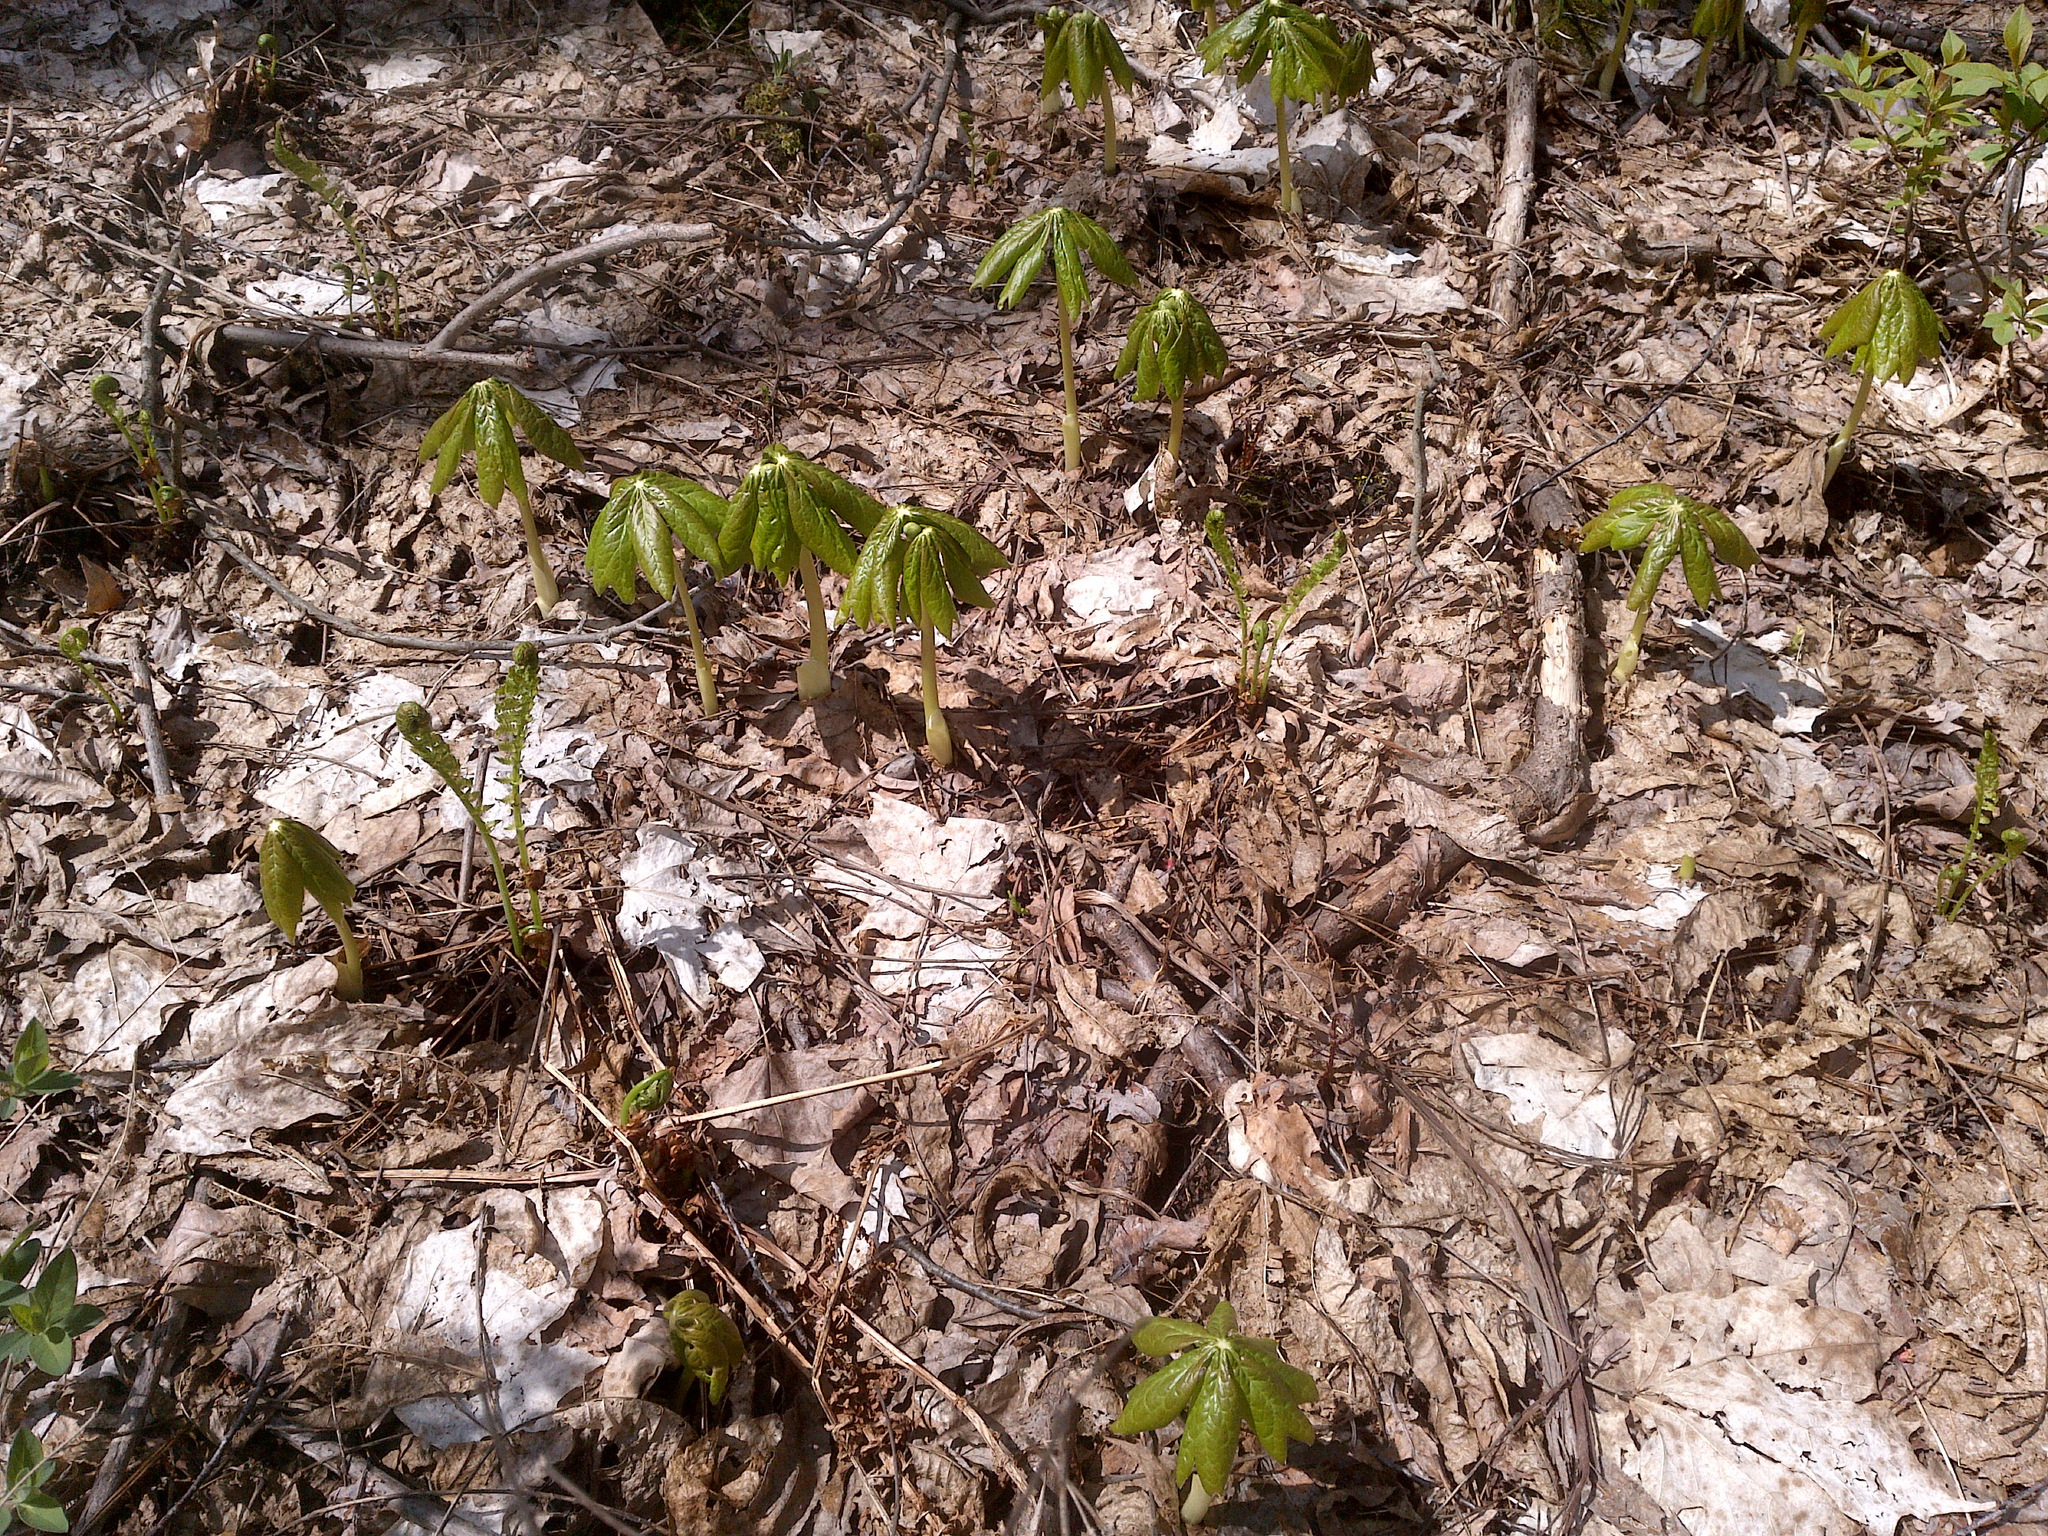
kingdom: Plantae
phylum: Tracheophyta
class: Magnoliopsida
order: Ranunculales
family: Berberidaceae
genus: Podophyllum
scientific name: Podophyllum peltatum
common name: Wild mandrake
